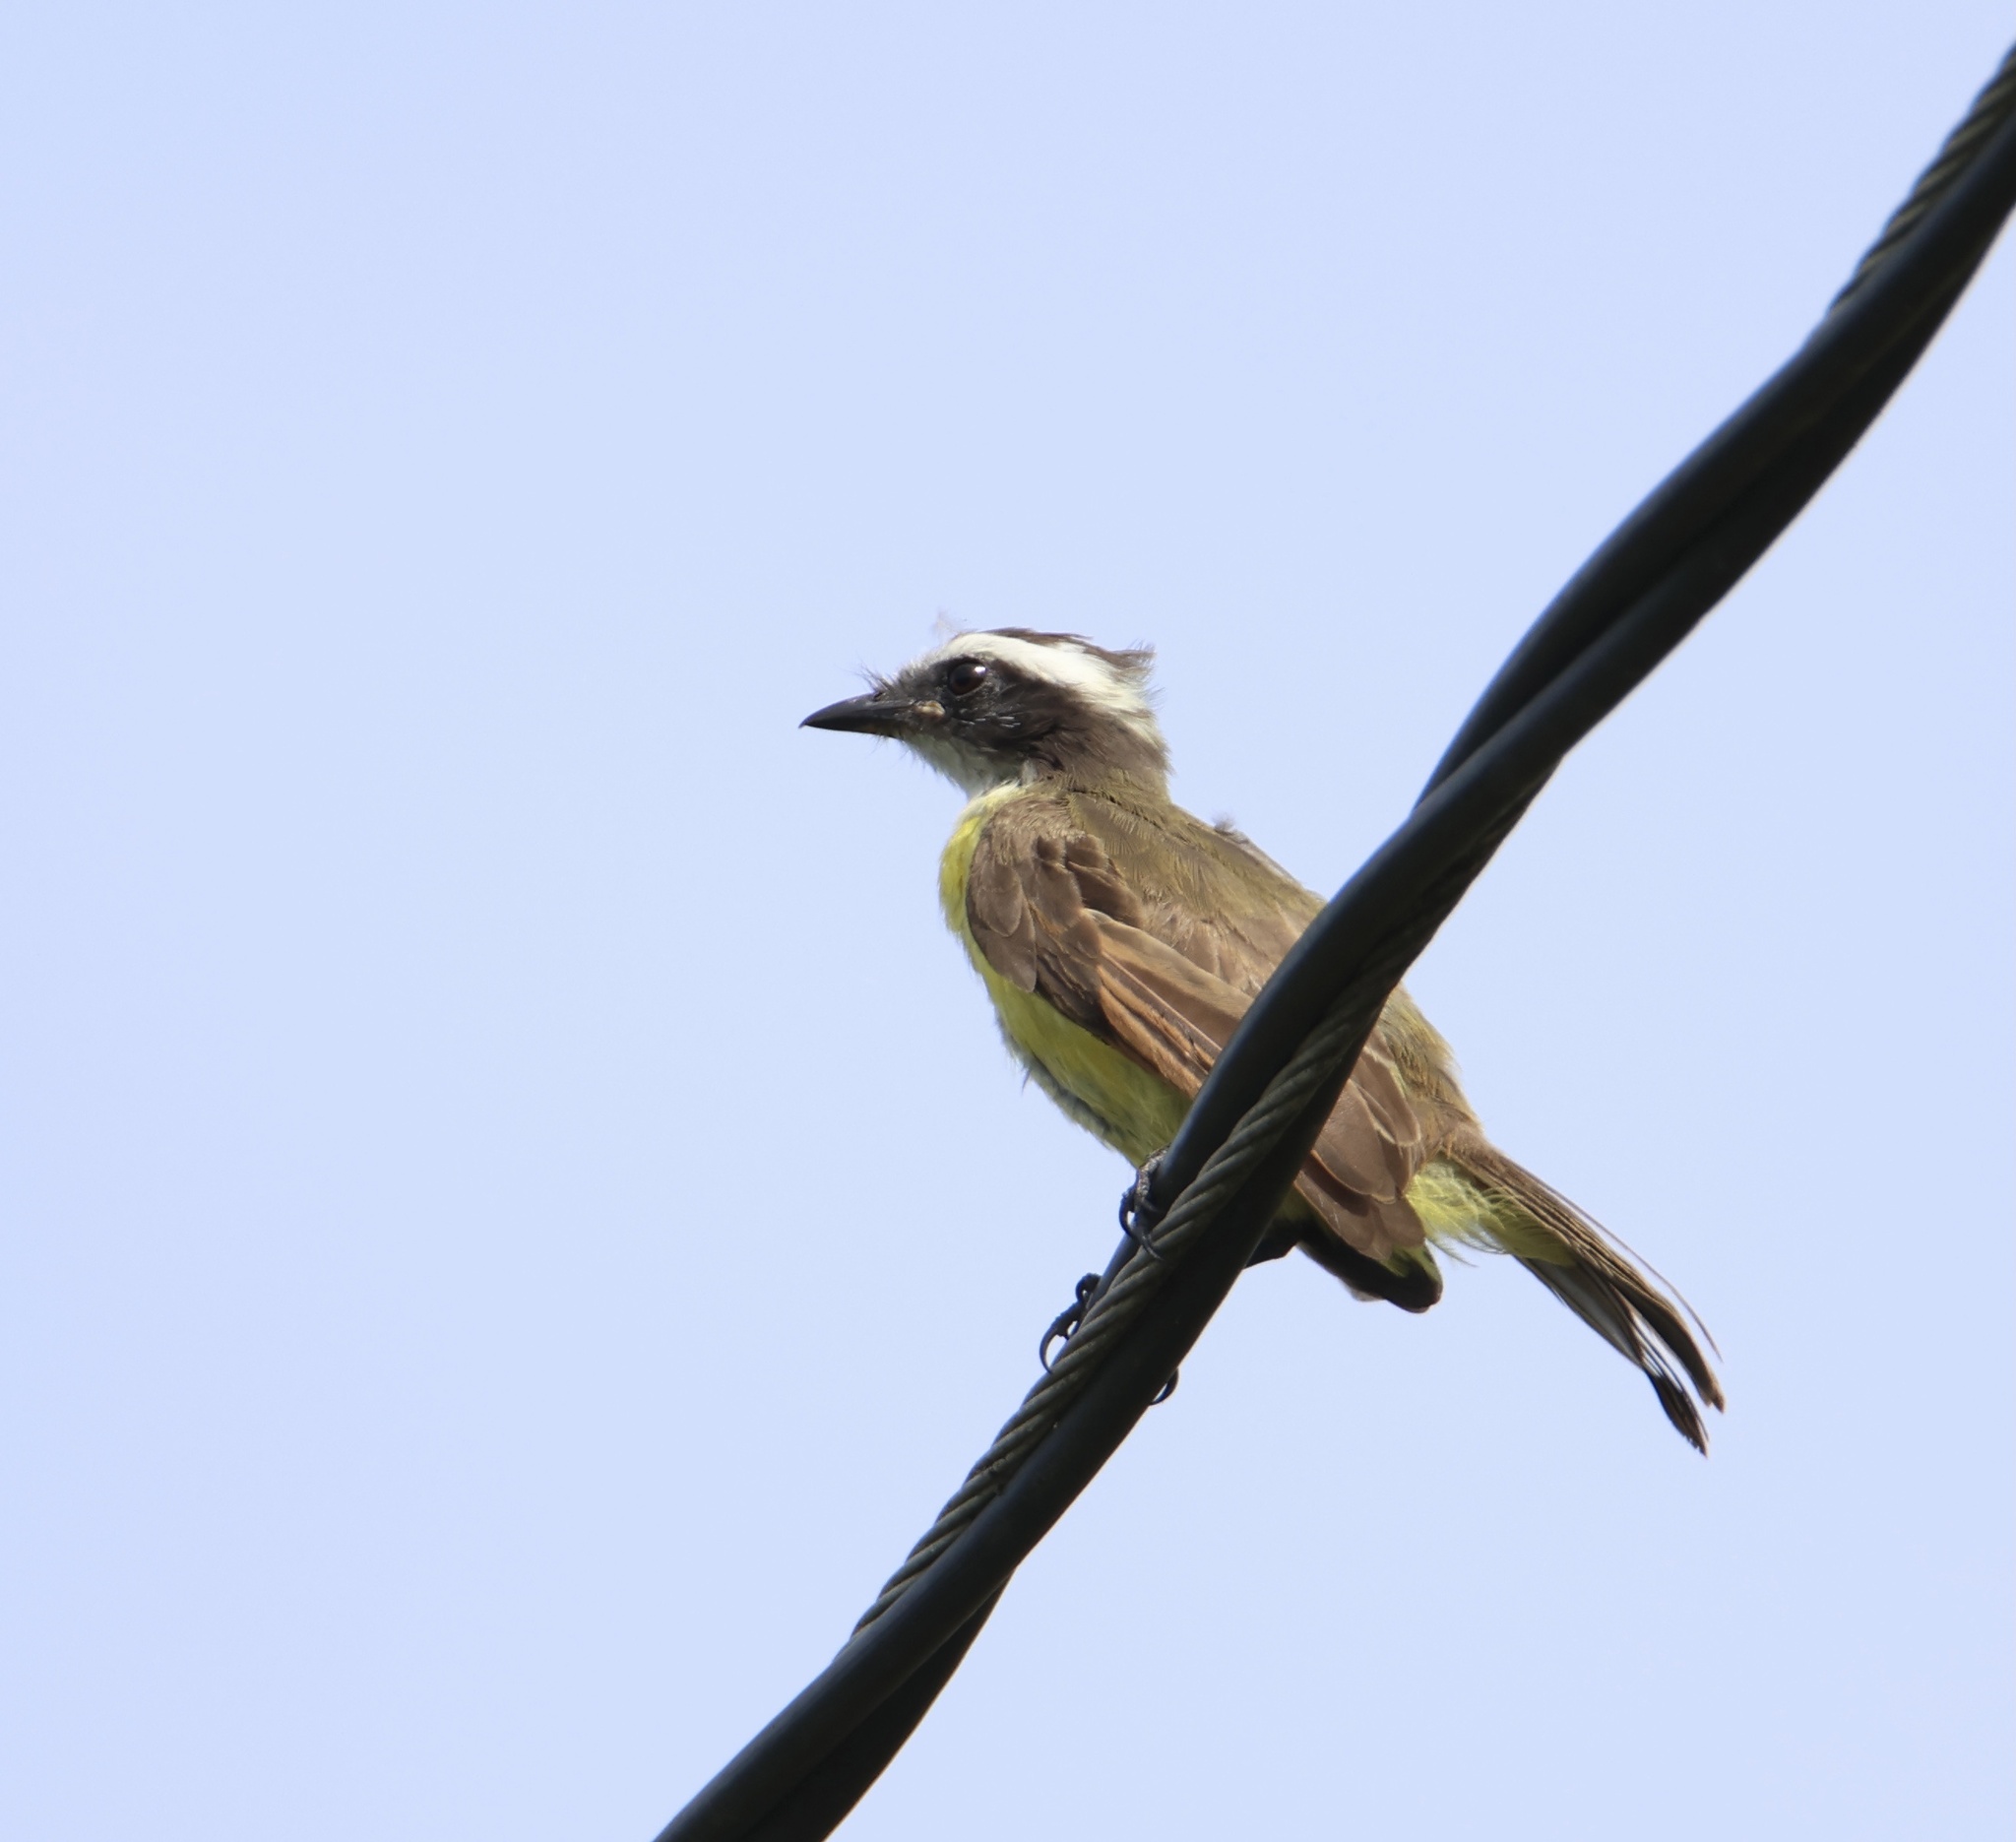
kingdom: Animalia
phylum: Chordata
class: Aves
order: Passeriformes
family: Tyrannidae
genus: Myiozetetes
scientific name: Myiozetetes cayanensis
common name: Rusty-margined flycatcher
